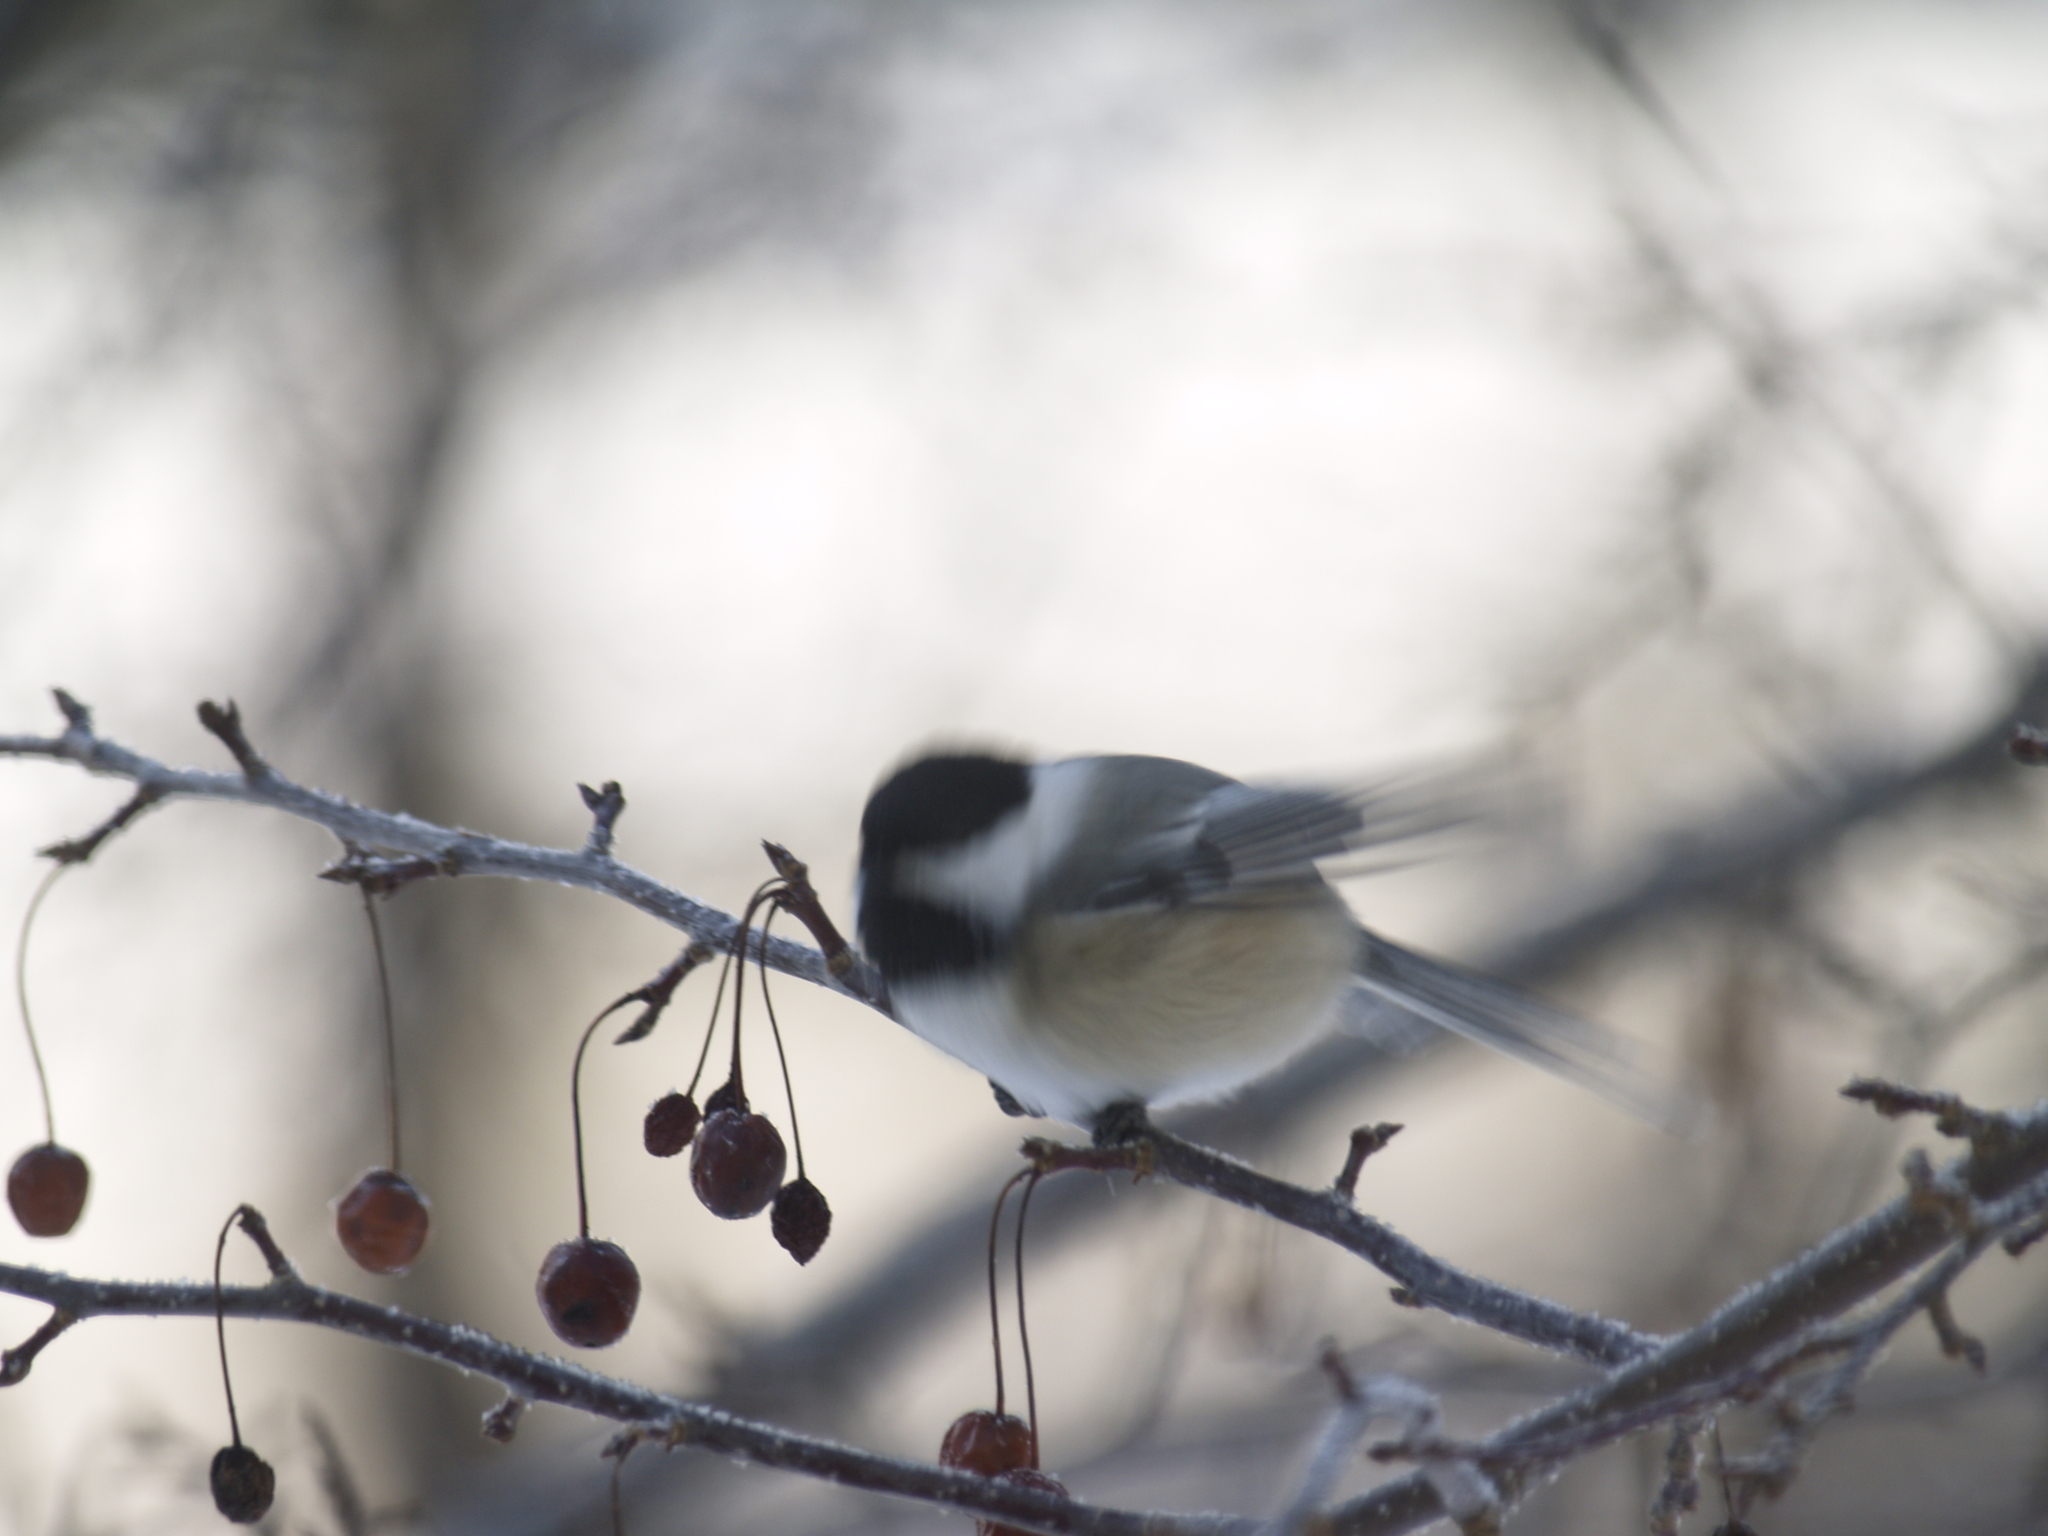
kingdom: Animalia
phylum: Chordata
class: Aves
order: Passeriformes
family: Paridae
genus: Poecile
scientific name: Poecile atricapillus
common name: Black-capped chickadee
